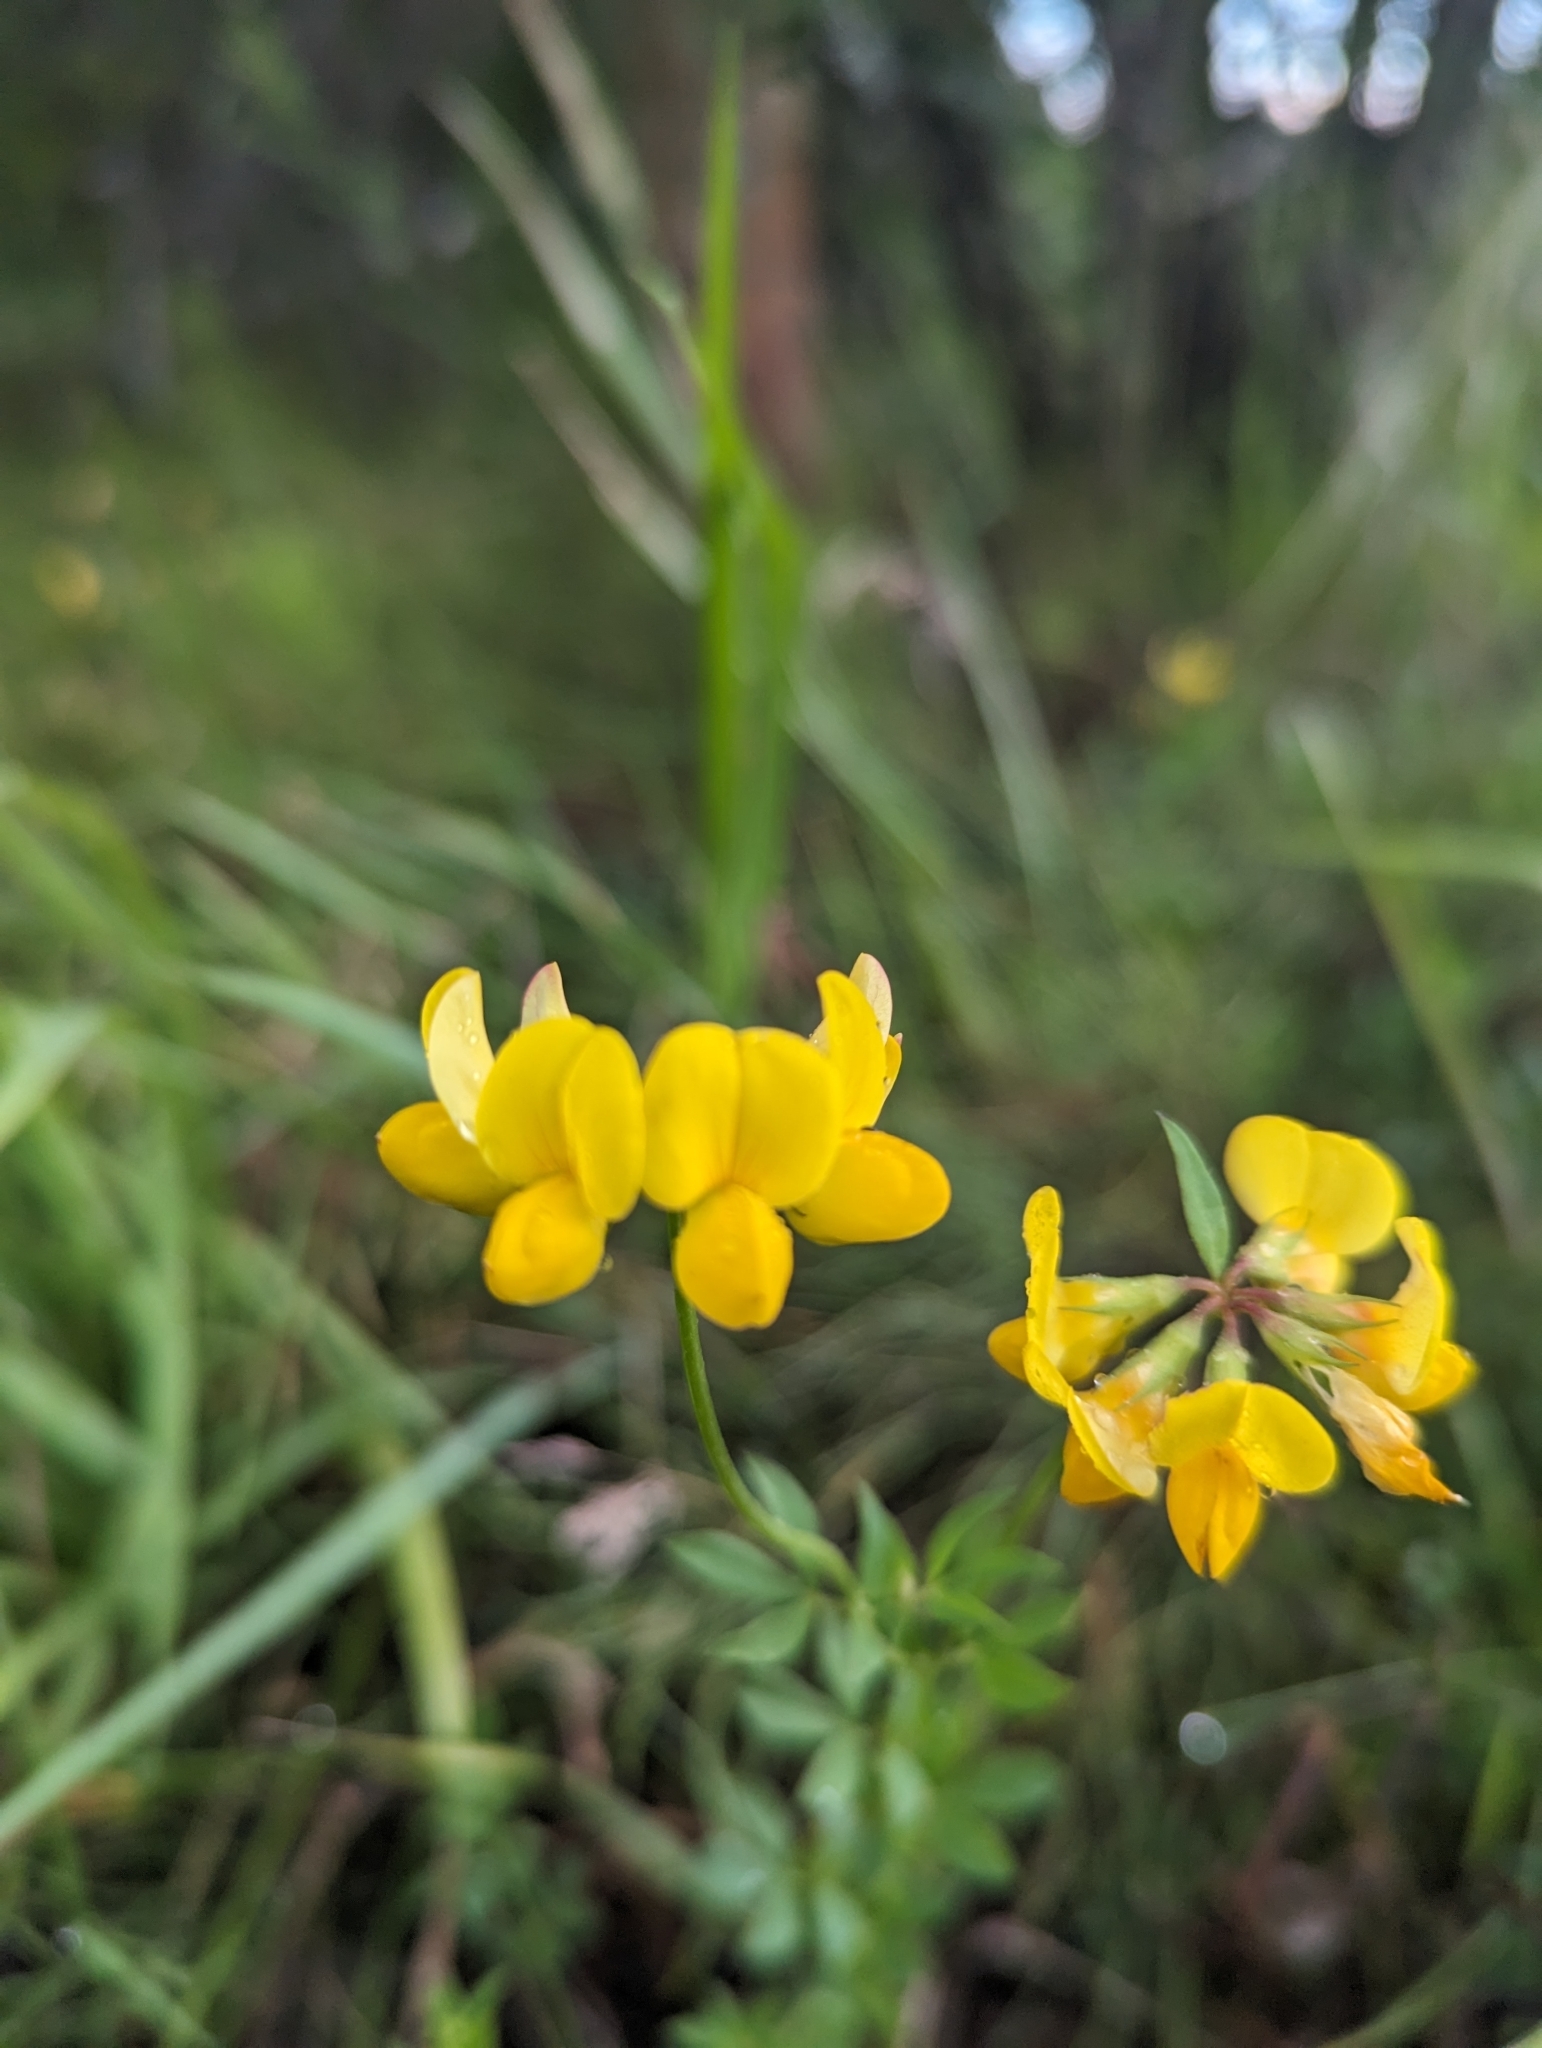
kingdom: Plantae
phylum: Tracheophyta
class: Magnoliopsida
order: Fabales
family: Fabaceae
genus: Lotus
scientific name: Lotus corniculatus
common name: Common bird's-foot-trefoil
